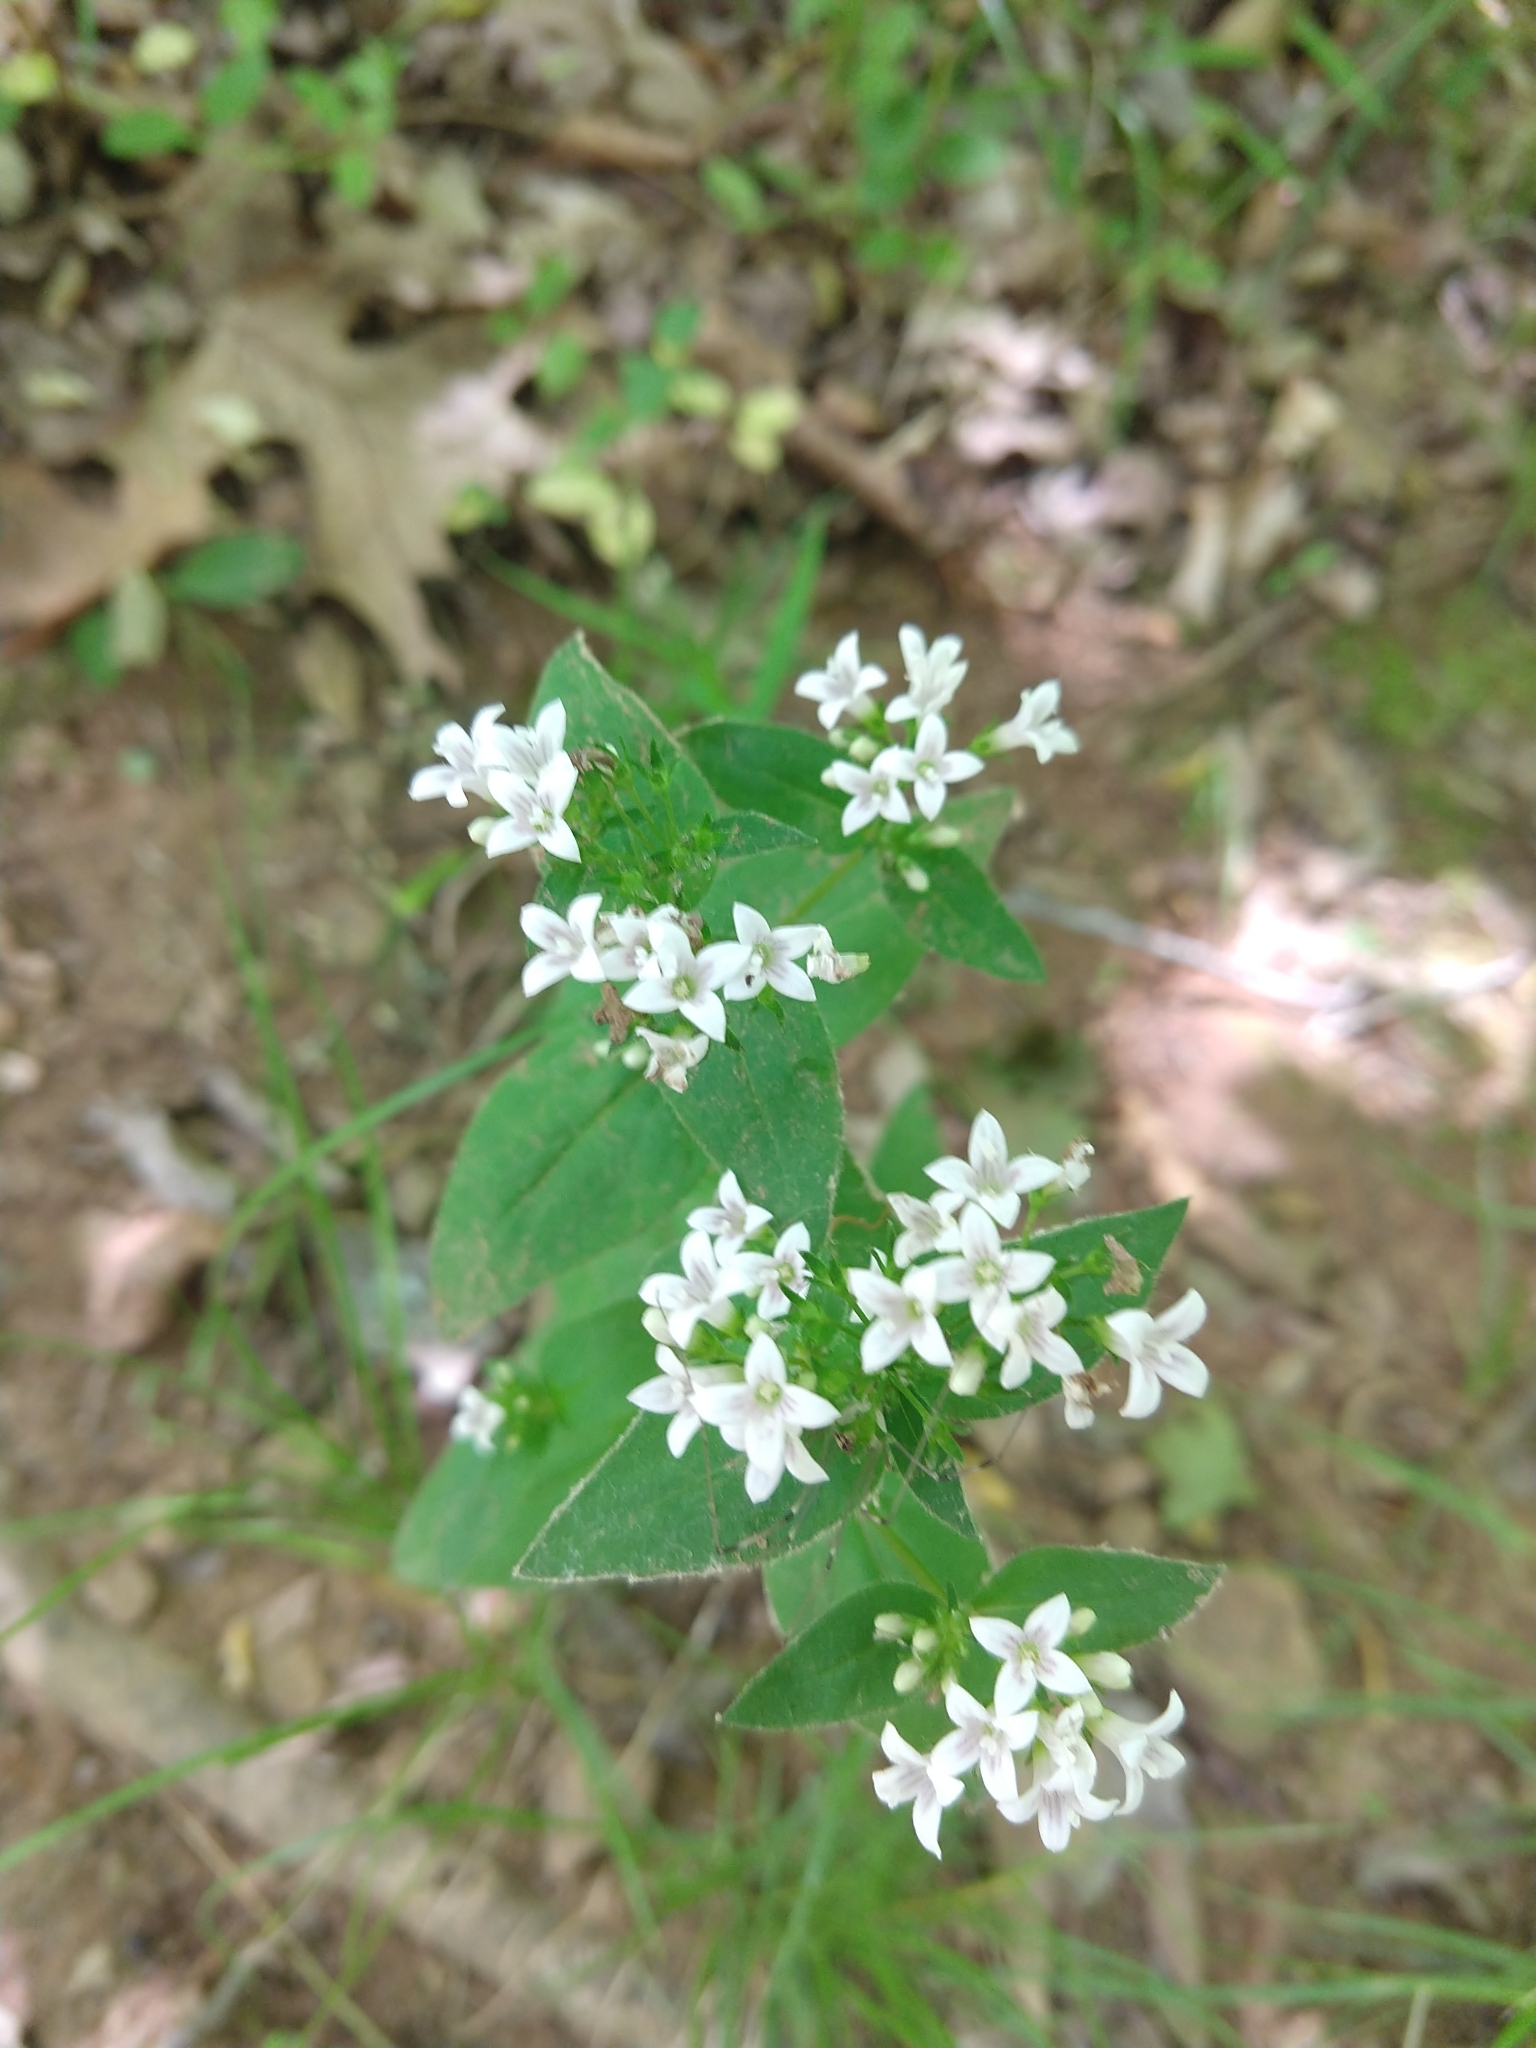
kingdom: Plantae
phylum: Tracheophyta
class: Magnoliopsida
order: Gentianales
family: Rubiaceae
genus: Houstonia
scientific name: Houstonia purpurea
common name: Summer bluet
